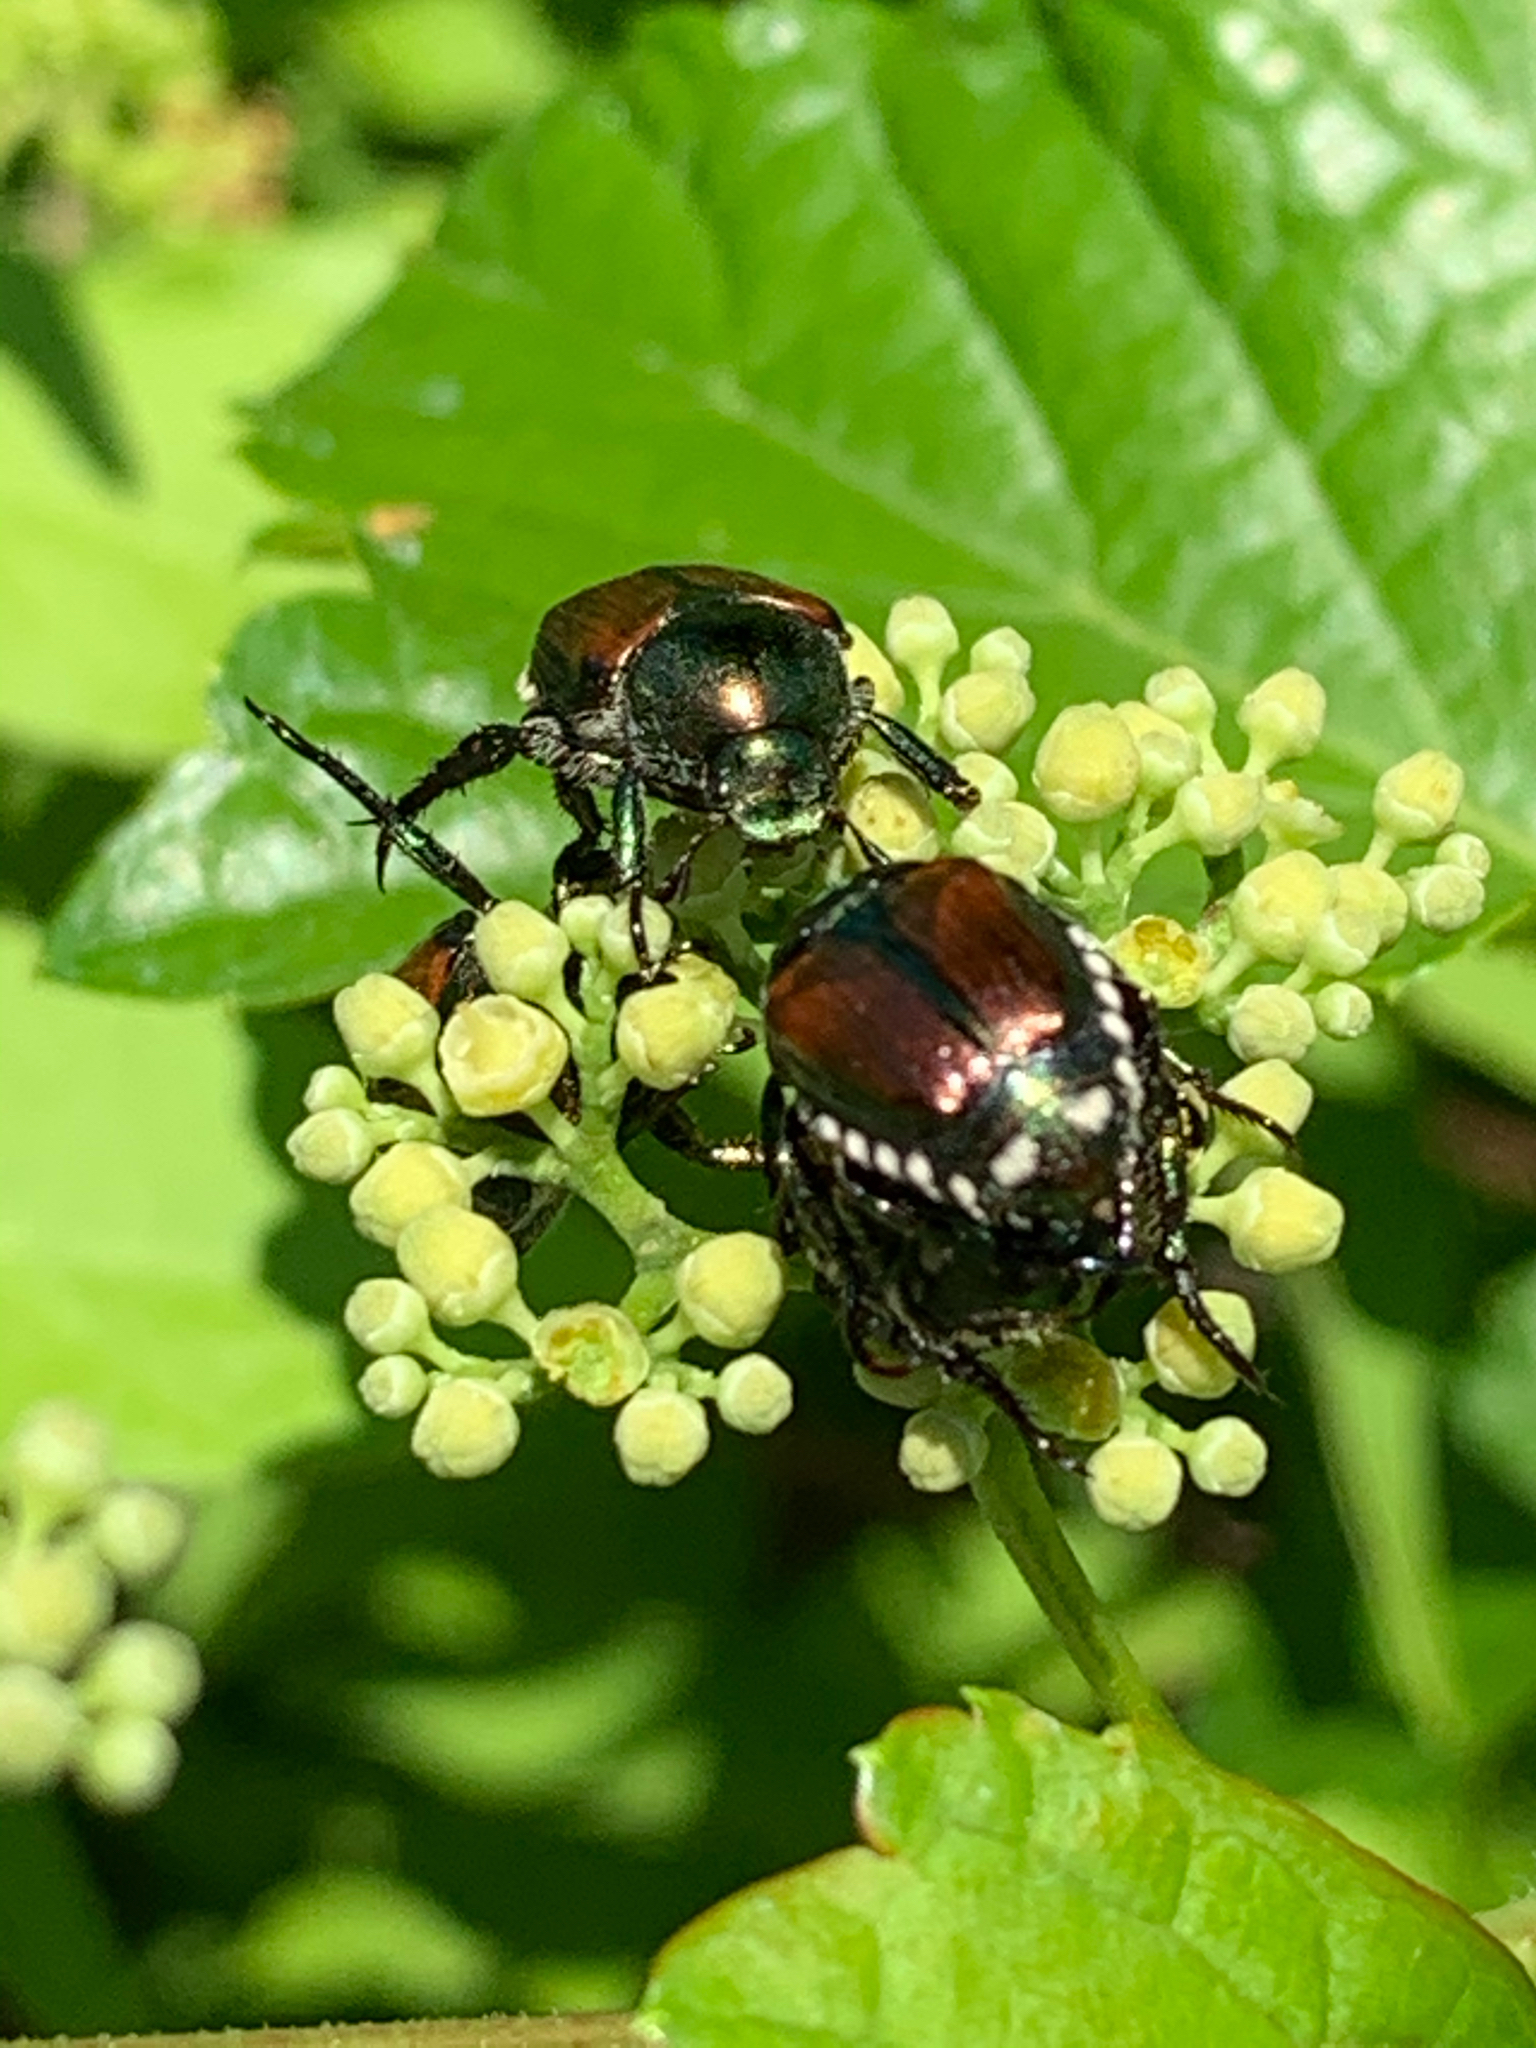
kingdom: Animalia
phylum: Arthropoda
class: Insecta
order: Coleoptera
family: Scarabaeidae
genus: Popillia
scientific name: Popillia japonica
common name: Japanese beetle
